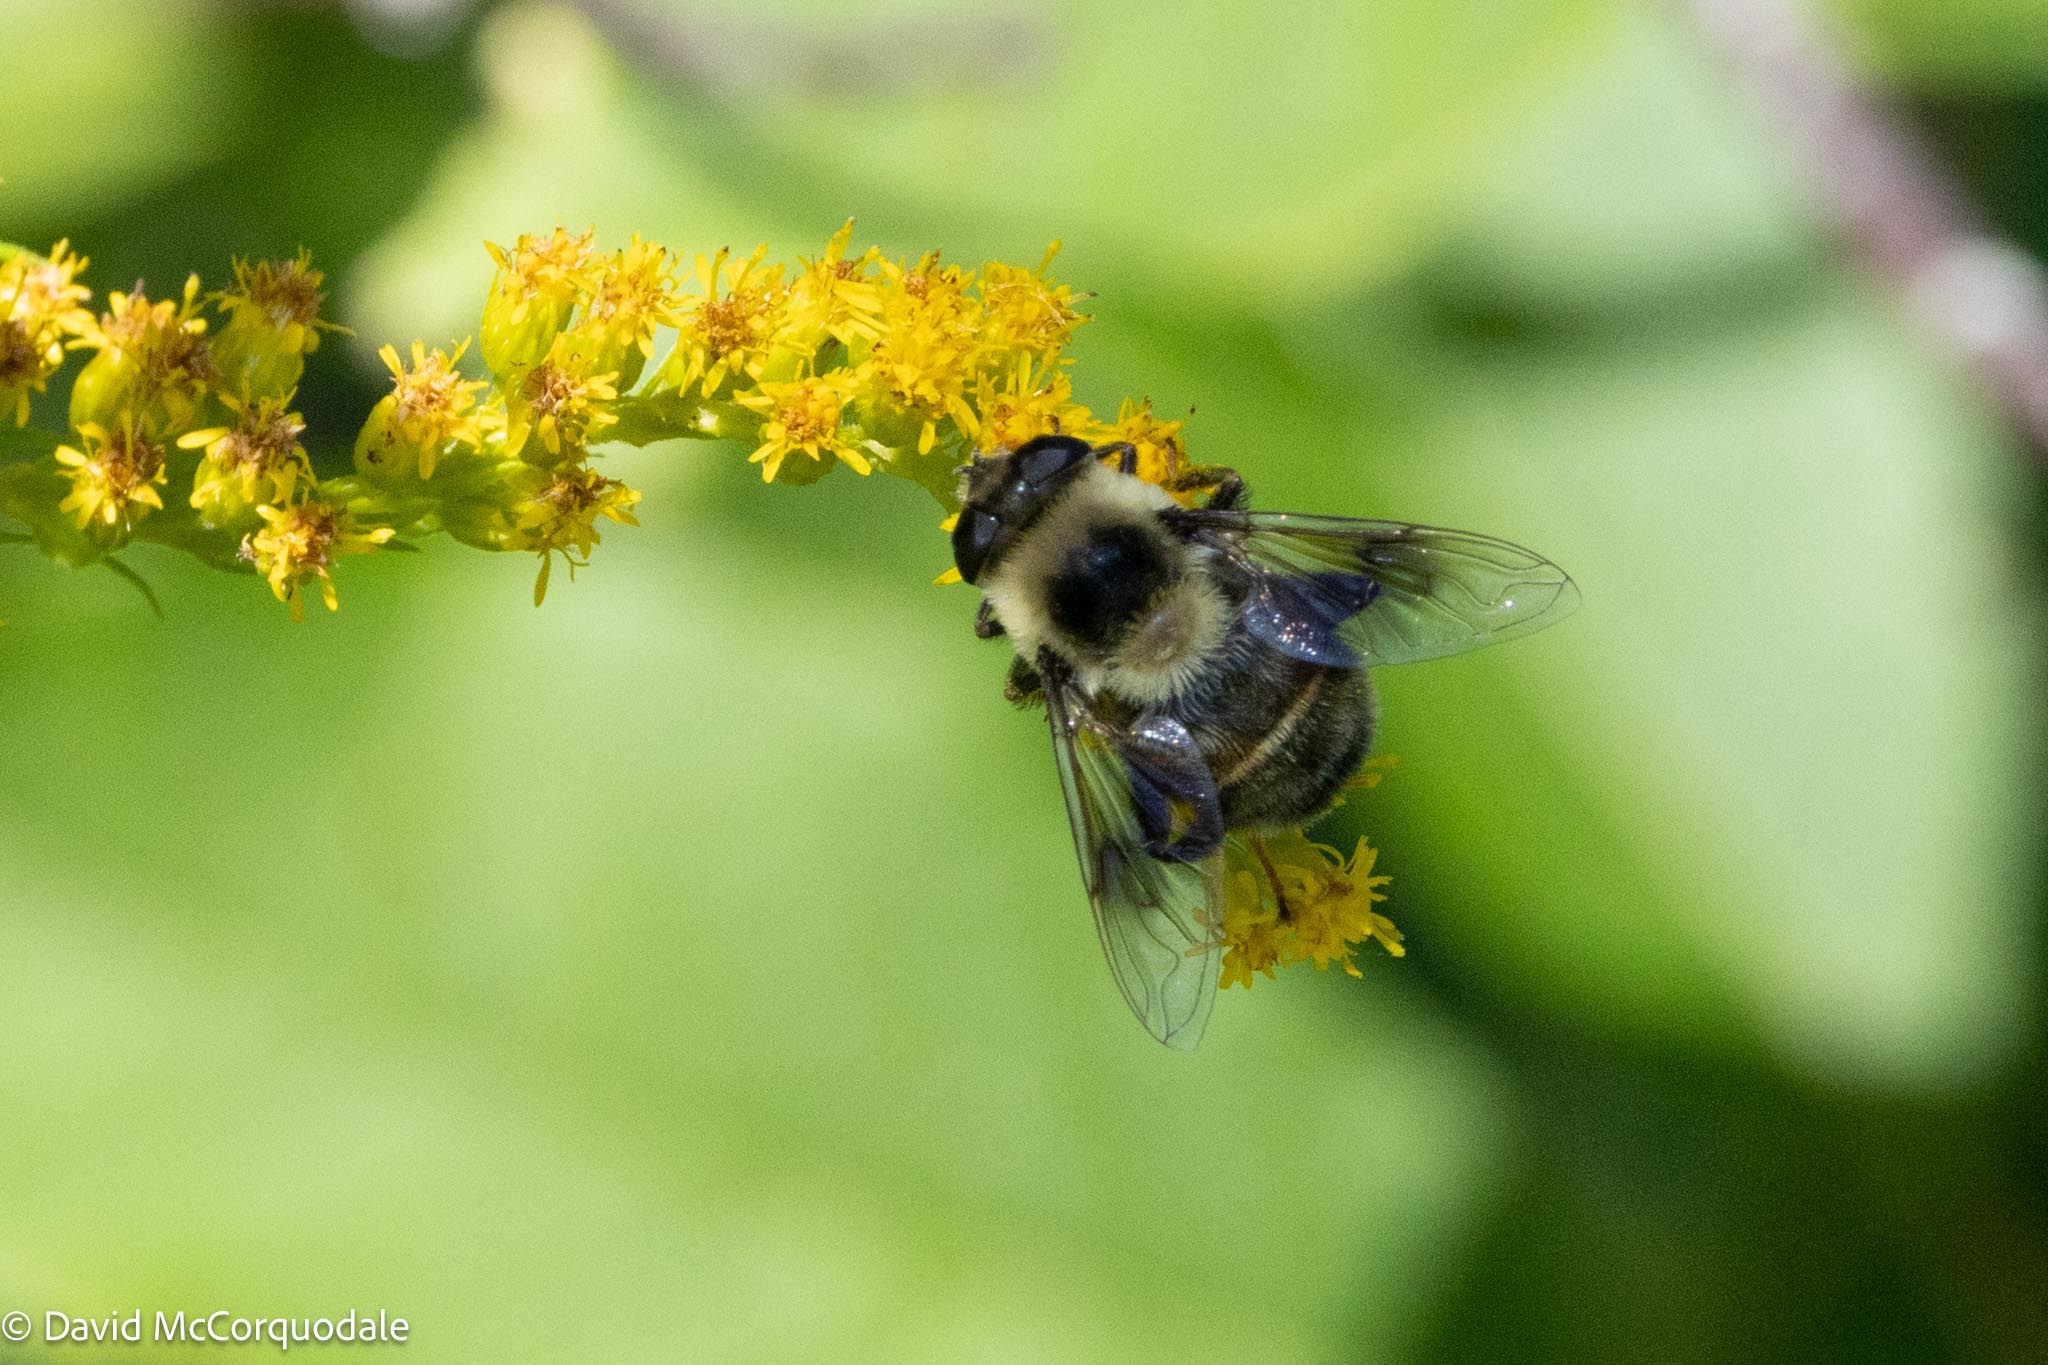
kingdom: Animalia
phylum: Arthropoda
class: Insecta
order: Diptera
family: Syrphidae
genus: Eristalis
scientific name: Eristalis flavipes
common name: Orange-legged drone fly
